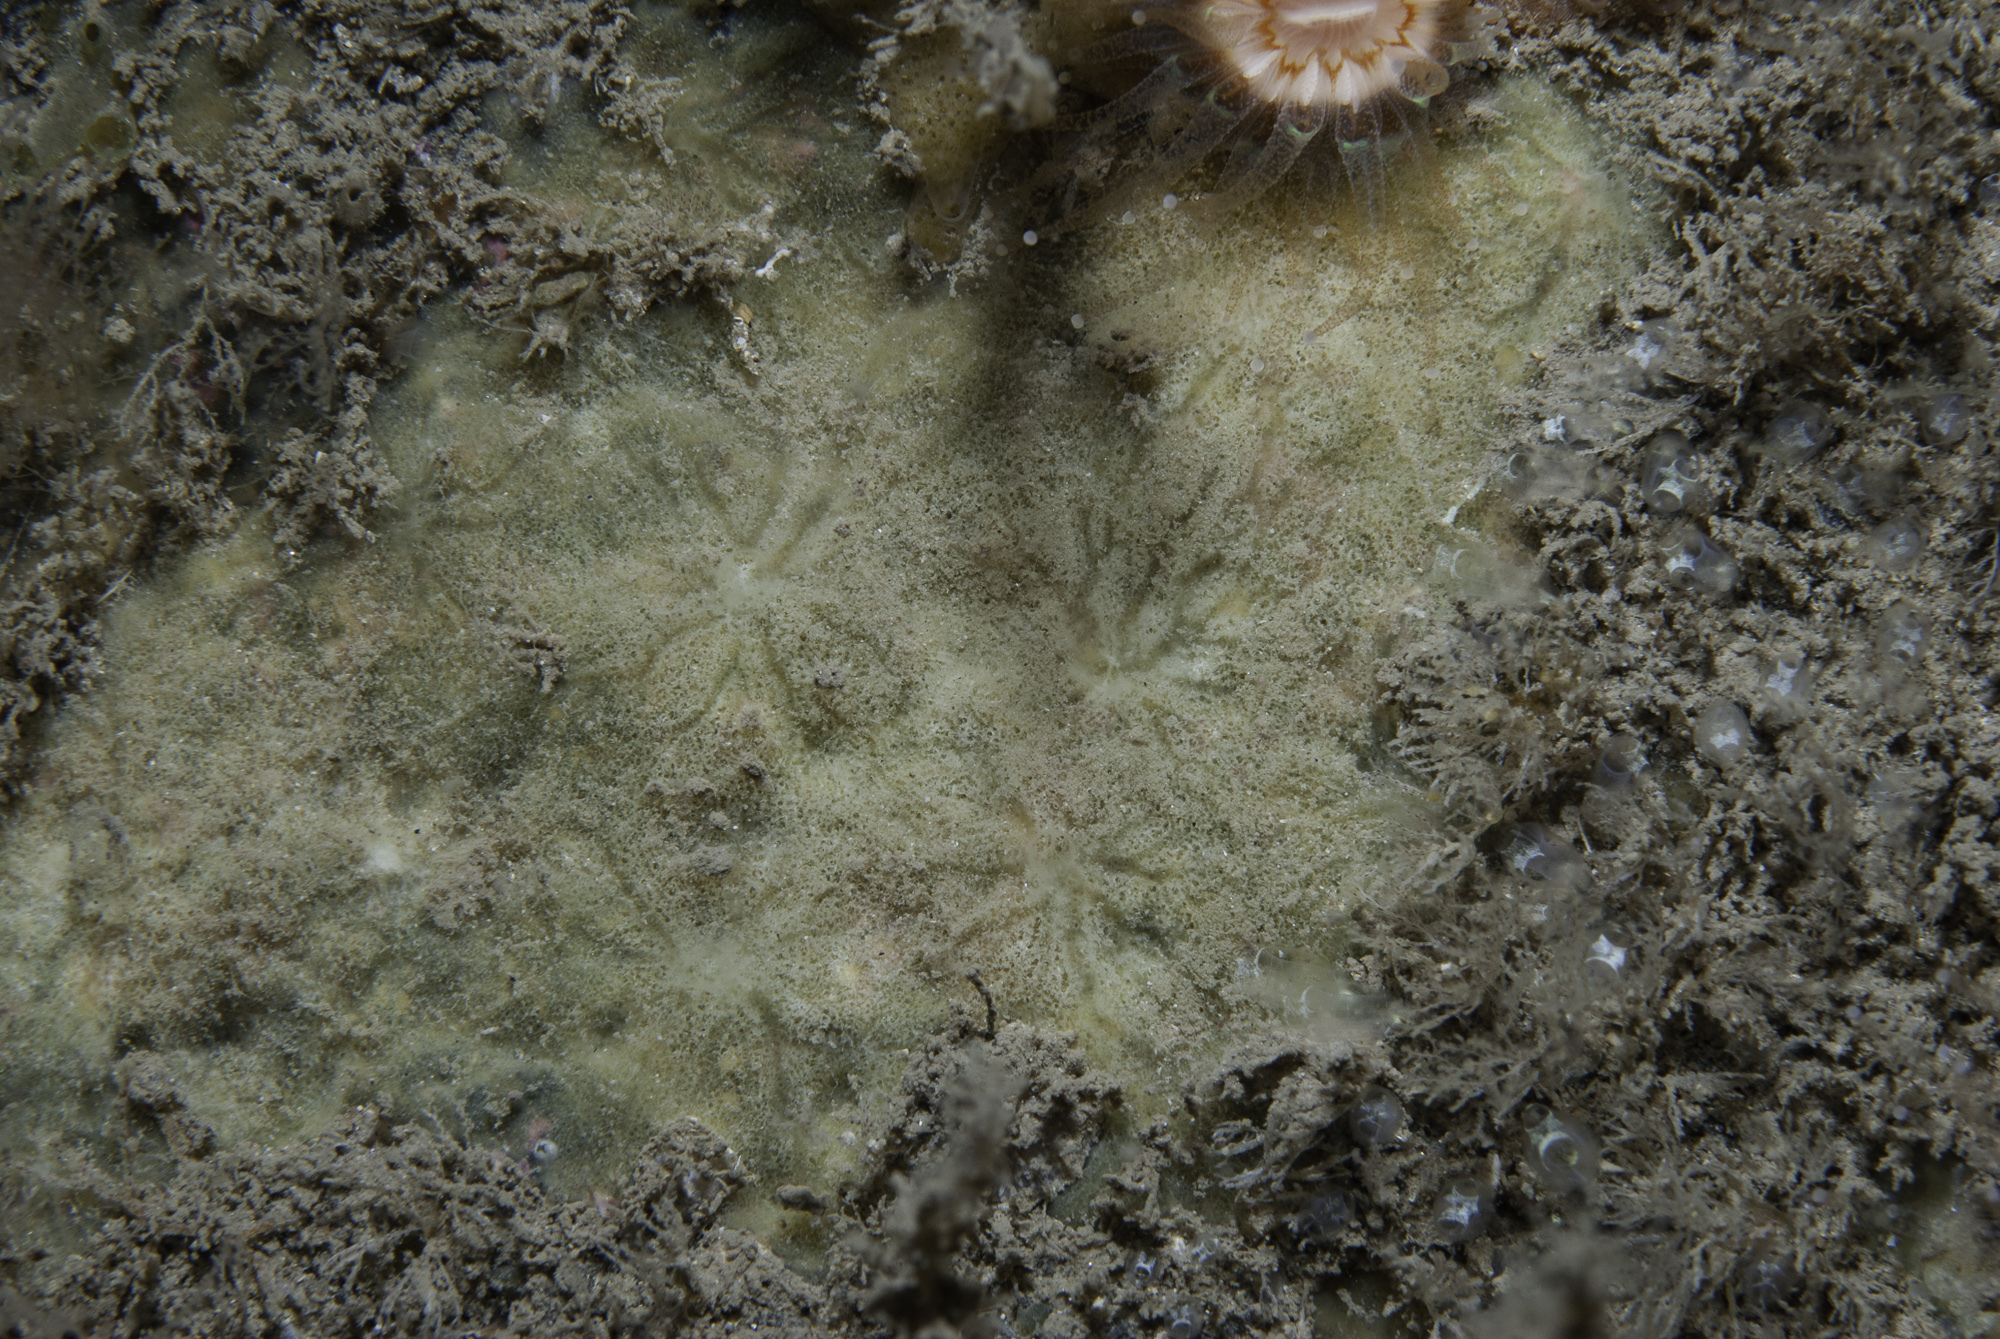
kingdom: Animalia
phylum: Porifera
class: Demospongiae
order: Poecilosclerida
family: Microcionidae
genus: Clathria
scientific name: Clathria elliptichela
